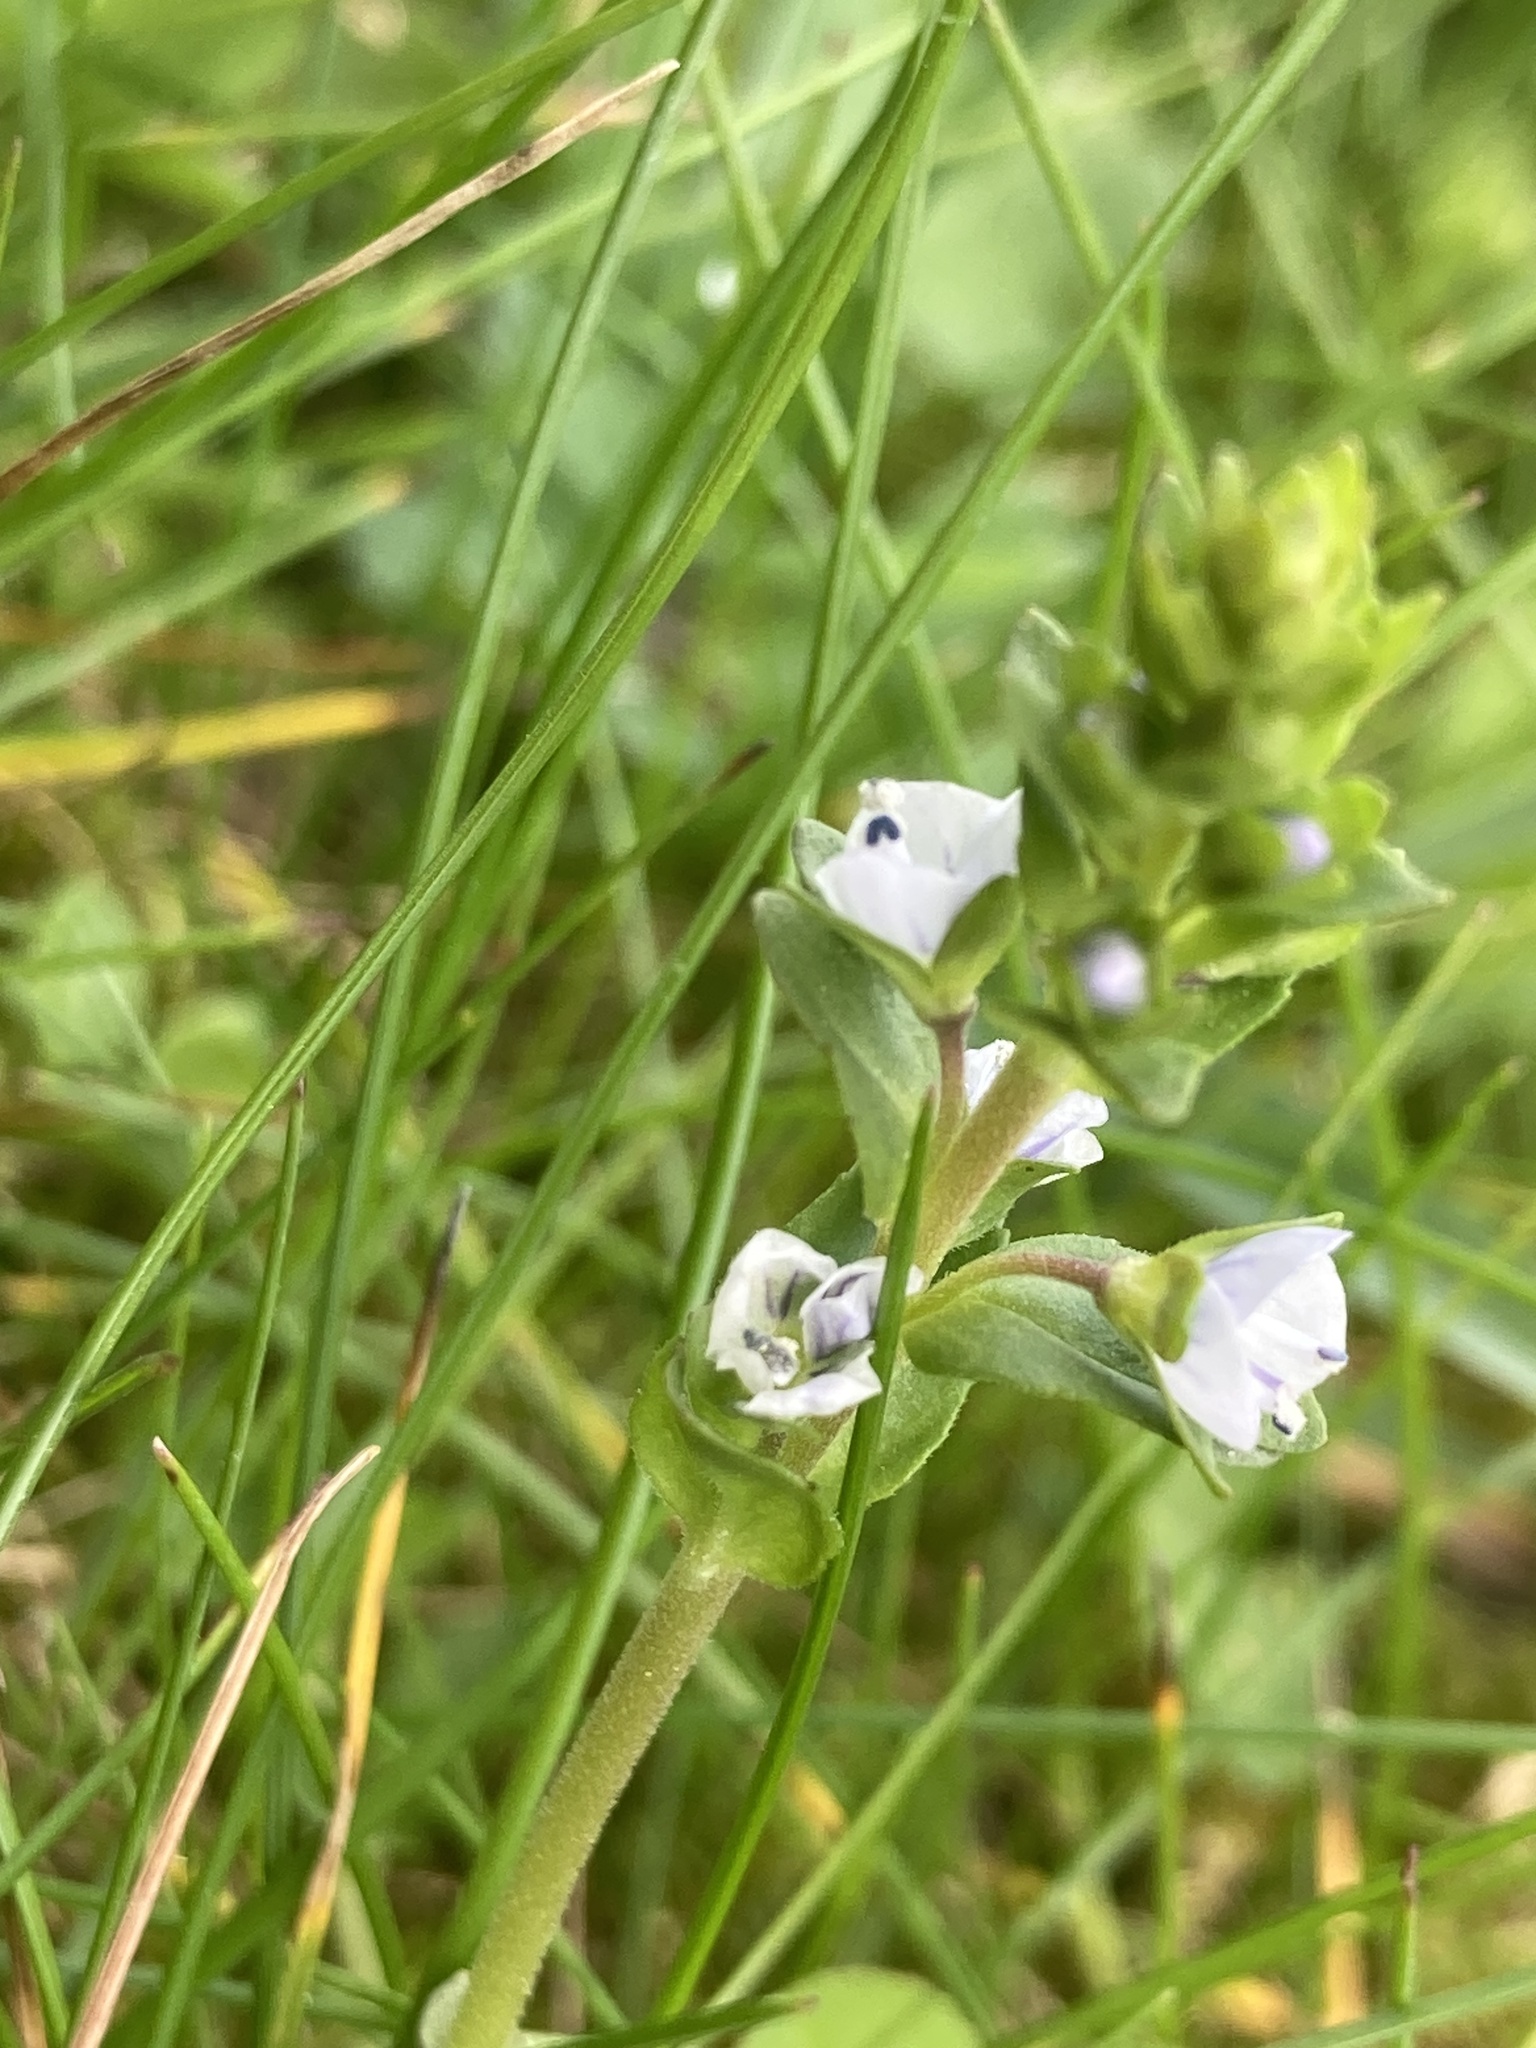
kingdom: Plantae
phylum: Tracheophyta
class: Magnoliopsida
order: Lamiales
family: Plantaginaceae
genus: Veronica
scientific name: Veronica serpyllifolia
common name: Thyme-leaved speedwell
